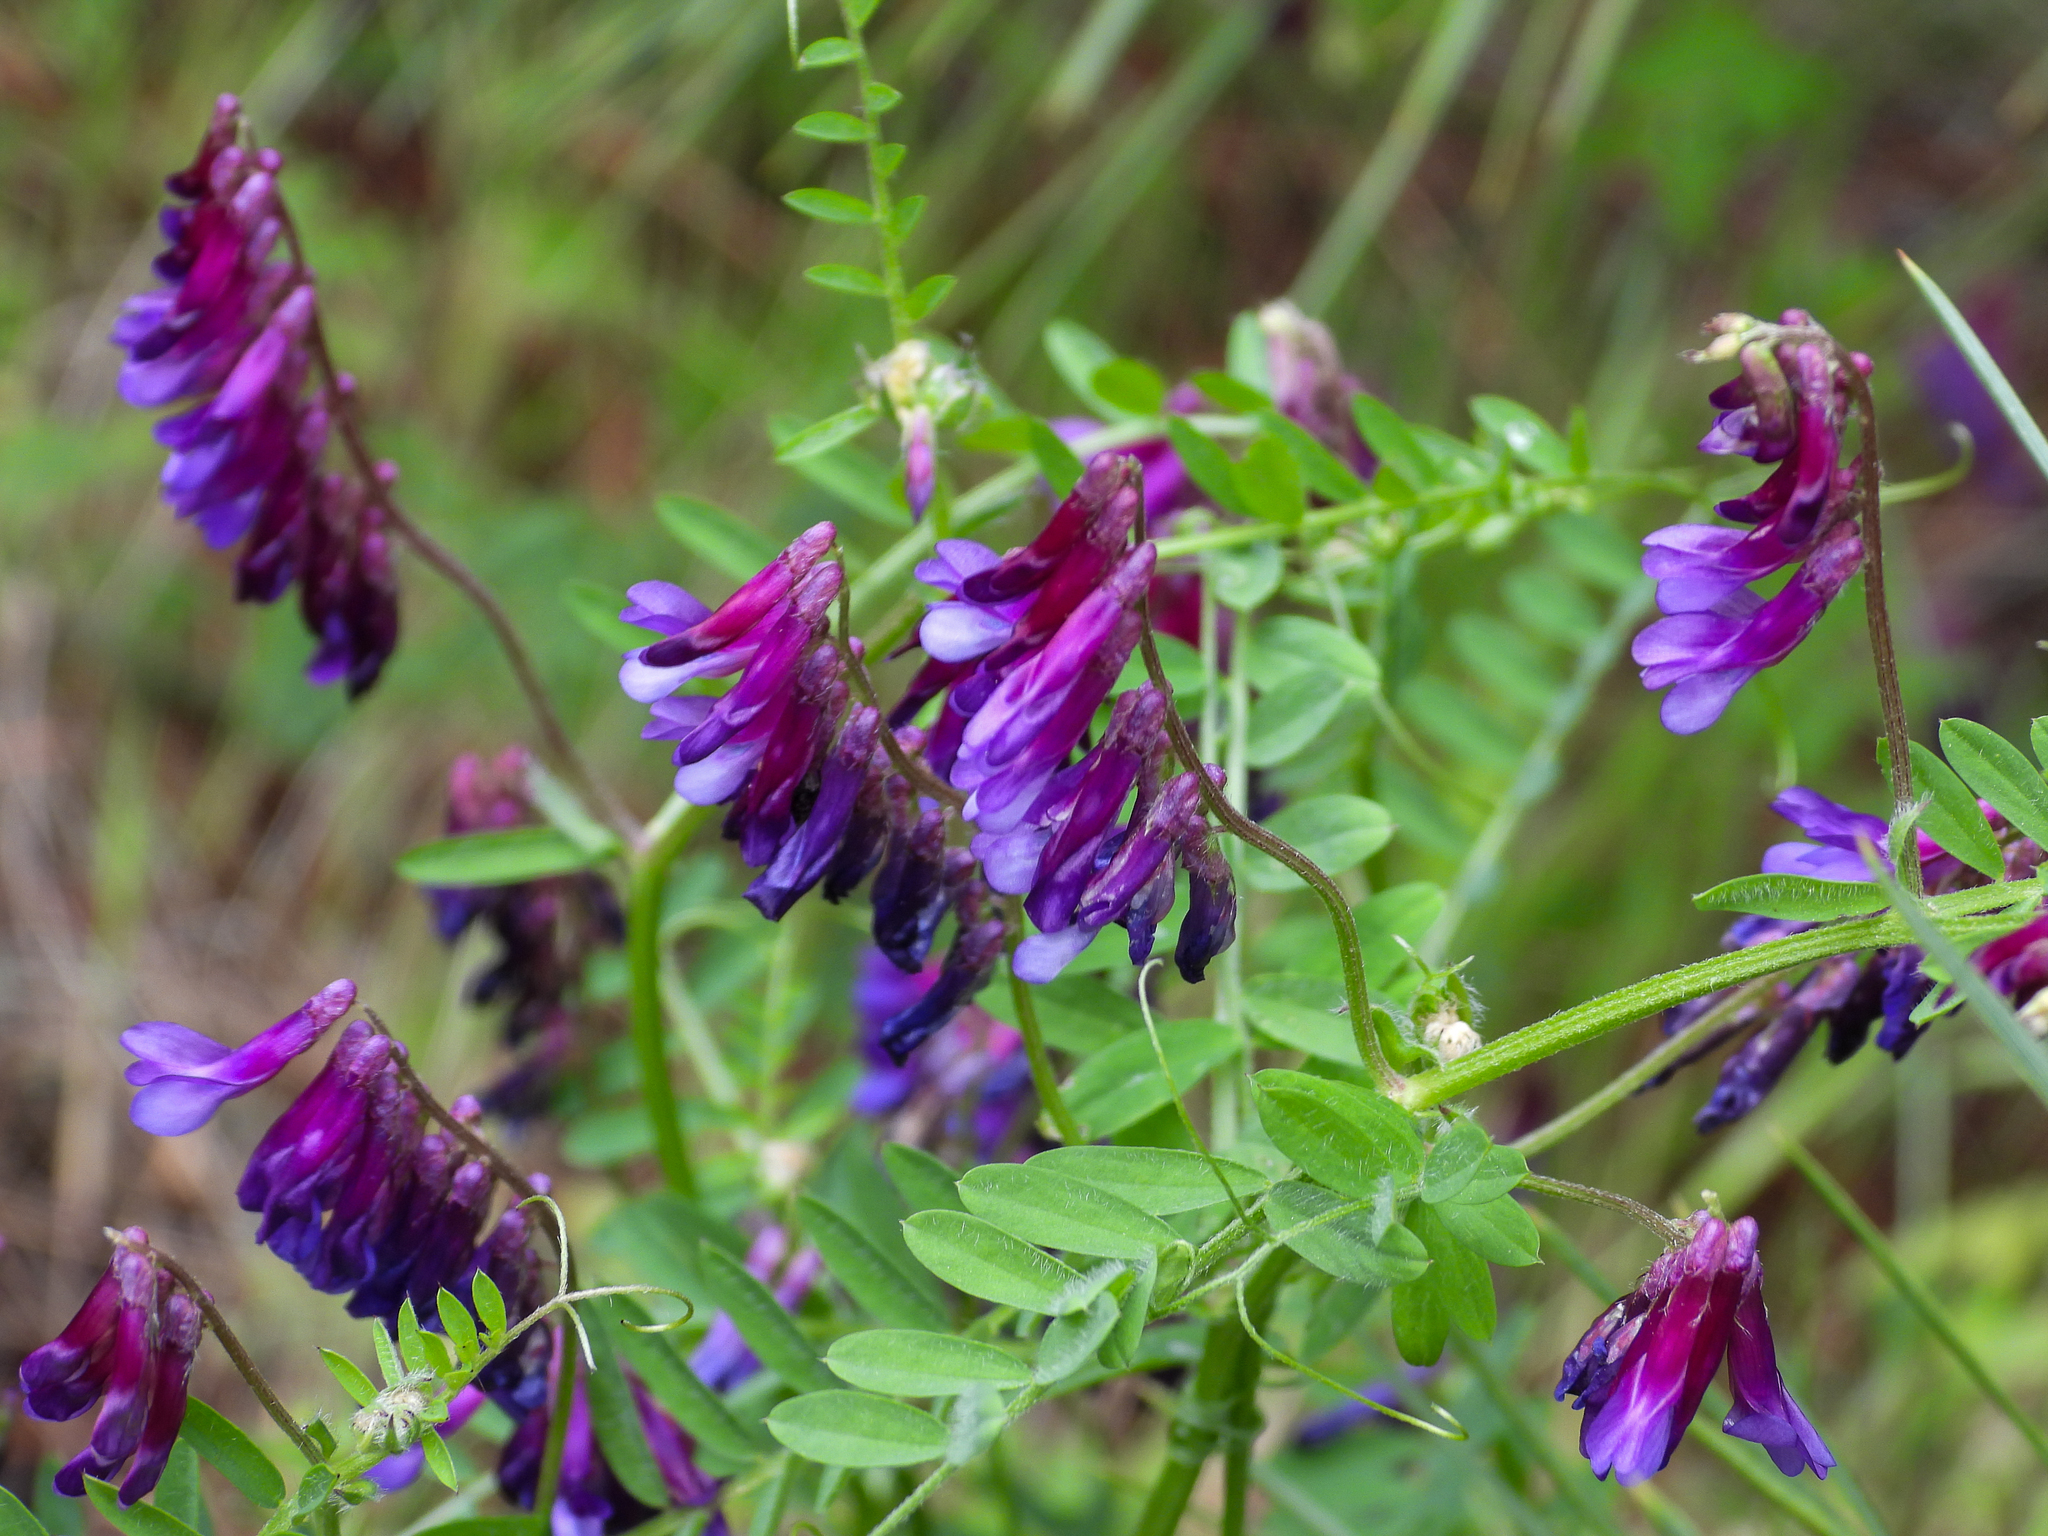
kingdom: Plantae
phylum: Tracheophyta
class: Magnoliopsida
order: Fabales
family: Fabaceae
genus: Vicia
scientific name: Vicia villosa
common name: Fodder vetch
